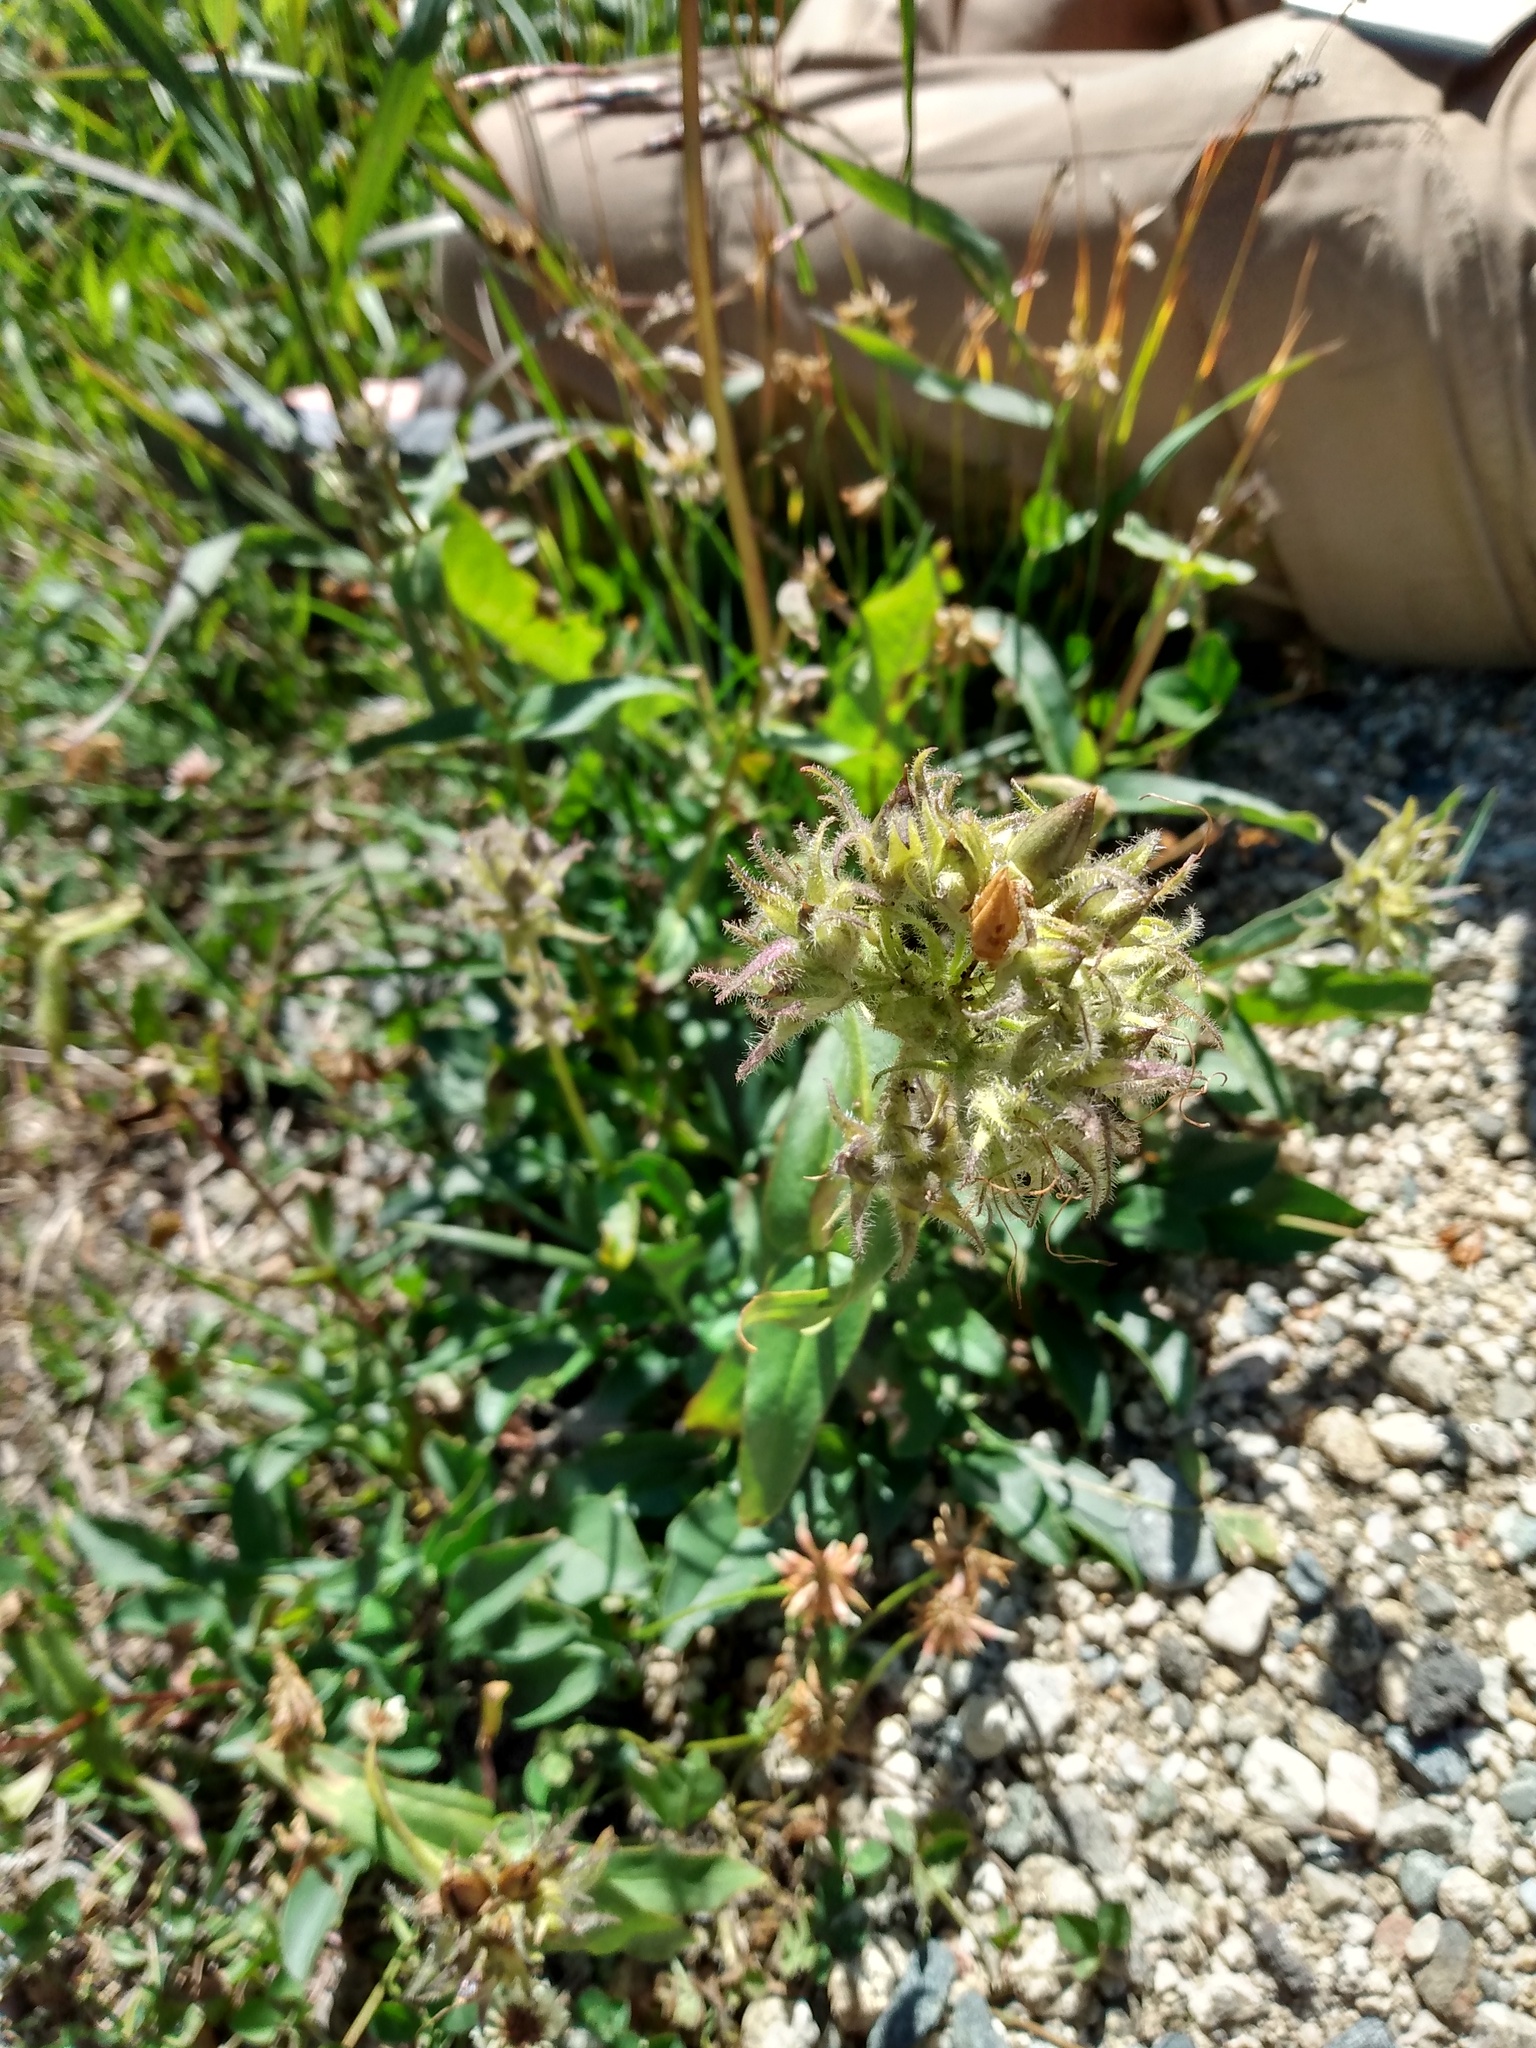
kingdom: Plantae
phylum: Tracheophyta
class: Magnoliopsida
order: Lamiales
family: Plantaginaceae
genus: Penstemon
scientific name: Penstemon whippleanus
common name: Whipple's penstemon
